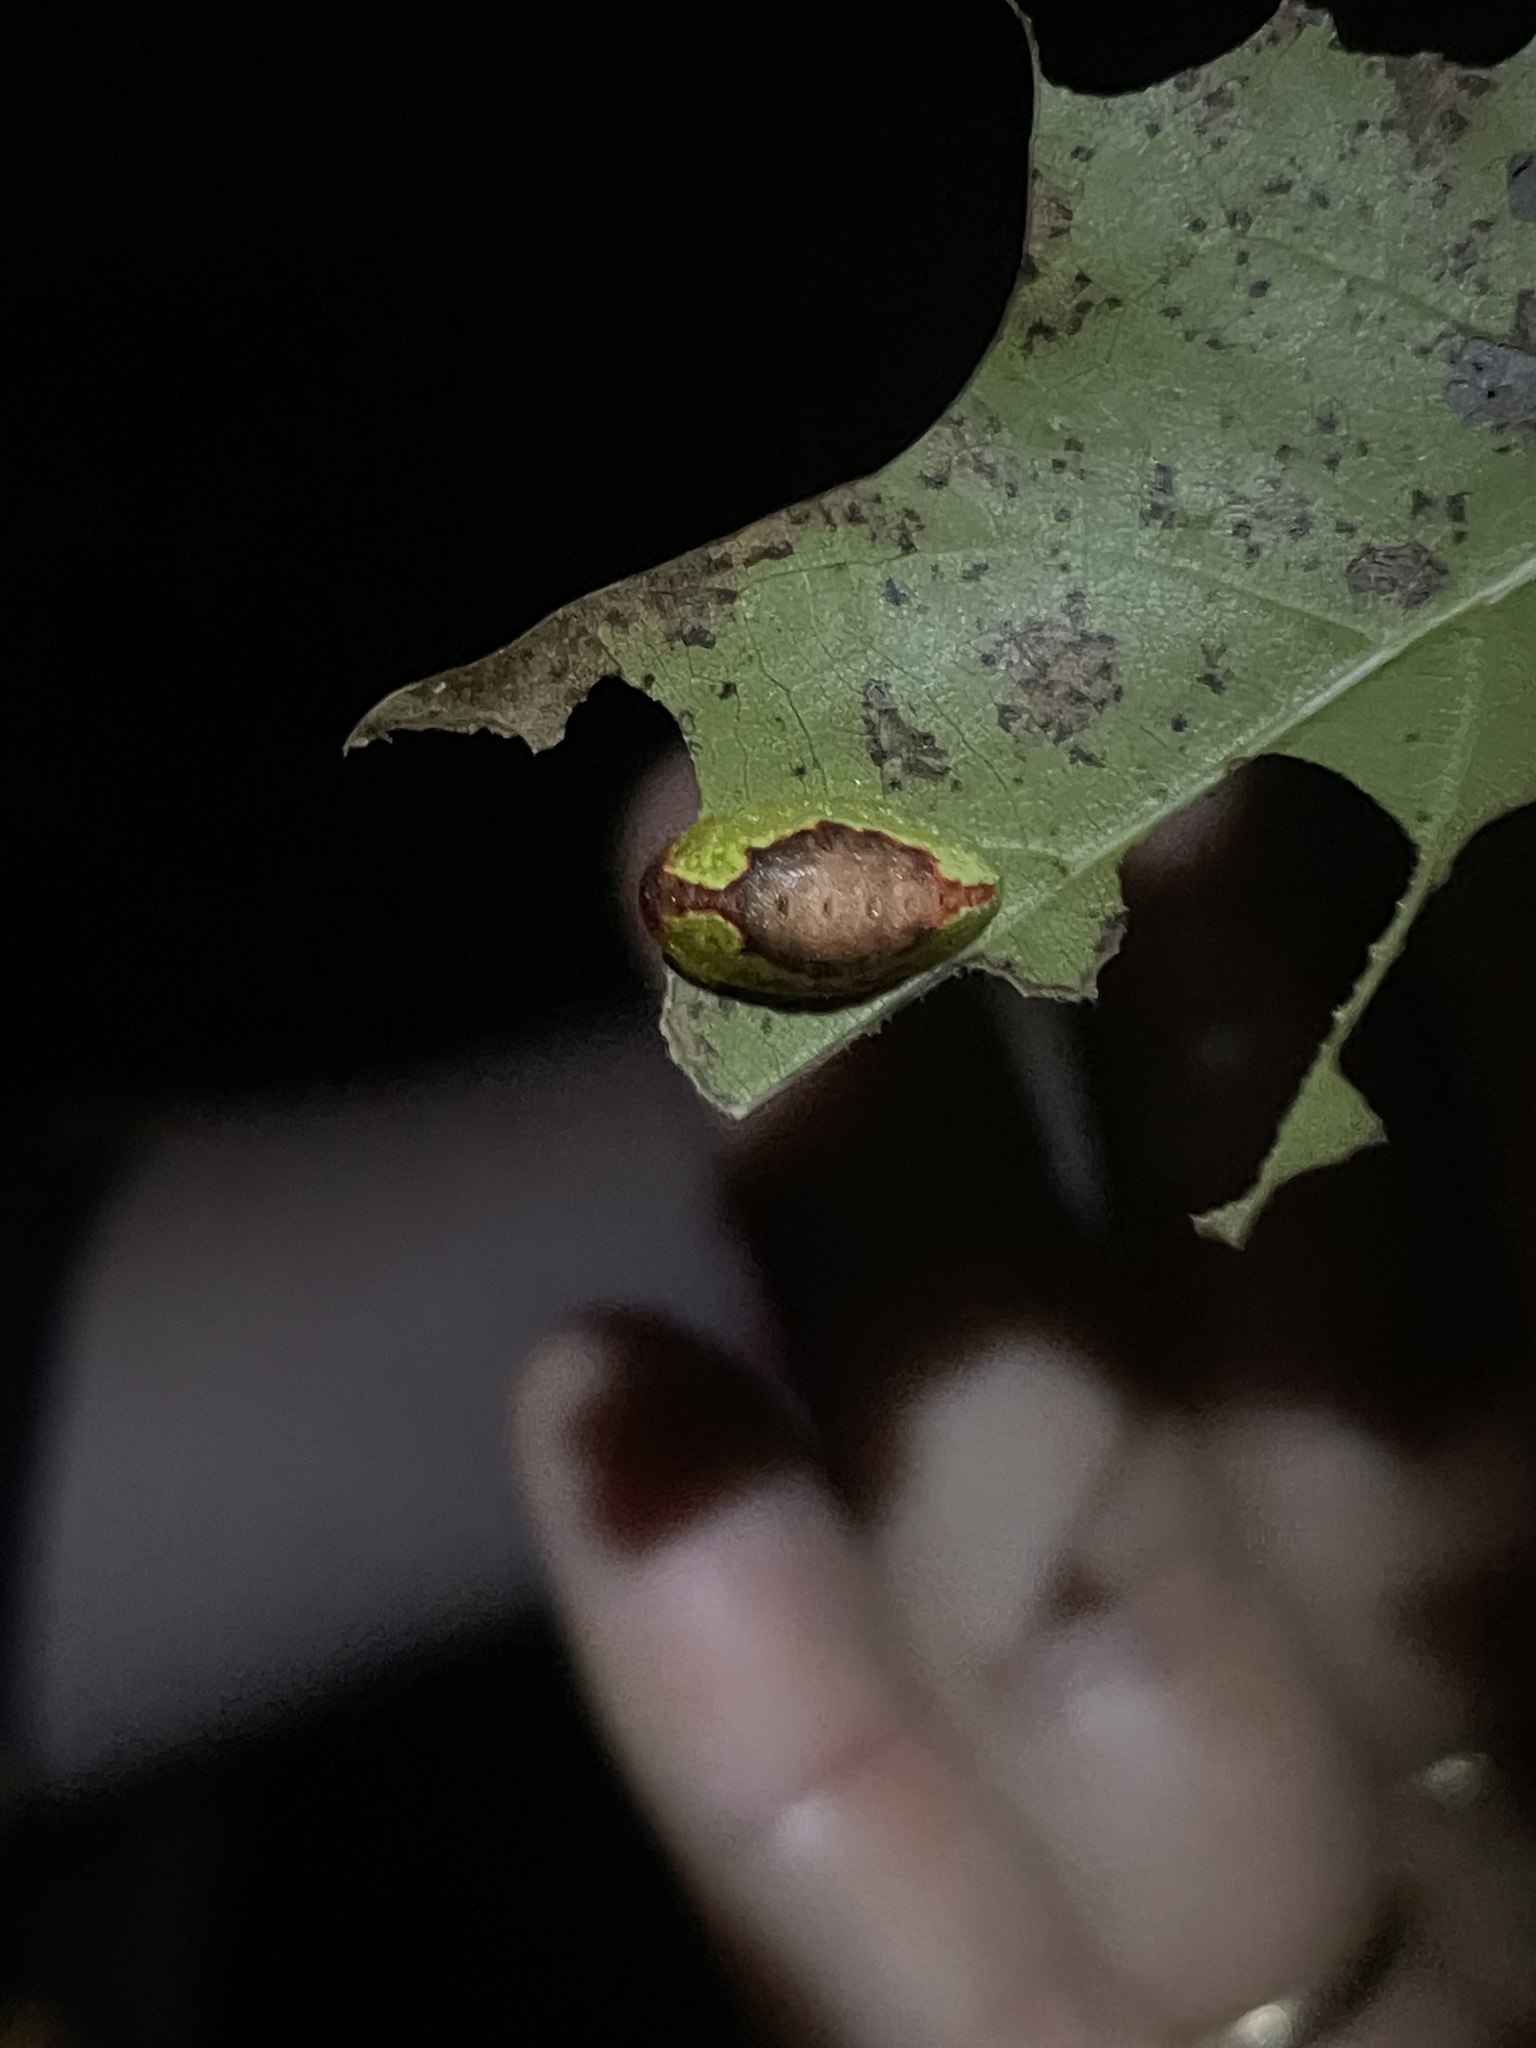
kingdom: Animalia
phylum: Arthropoda
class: Insecta
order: Lepidoptera
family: Limacodidae
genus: Tortricidia
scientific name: Tortricidia flexuosa
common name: Abbreviated button slug moth
